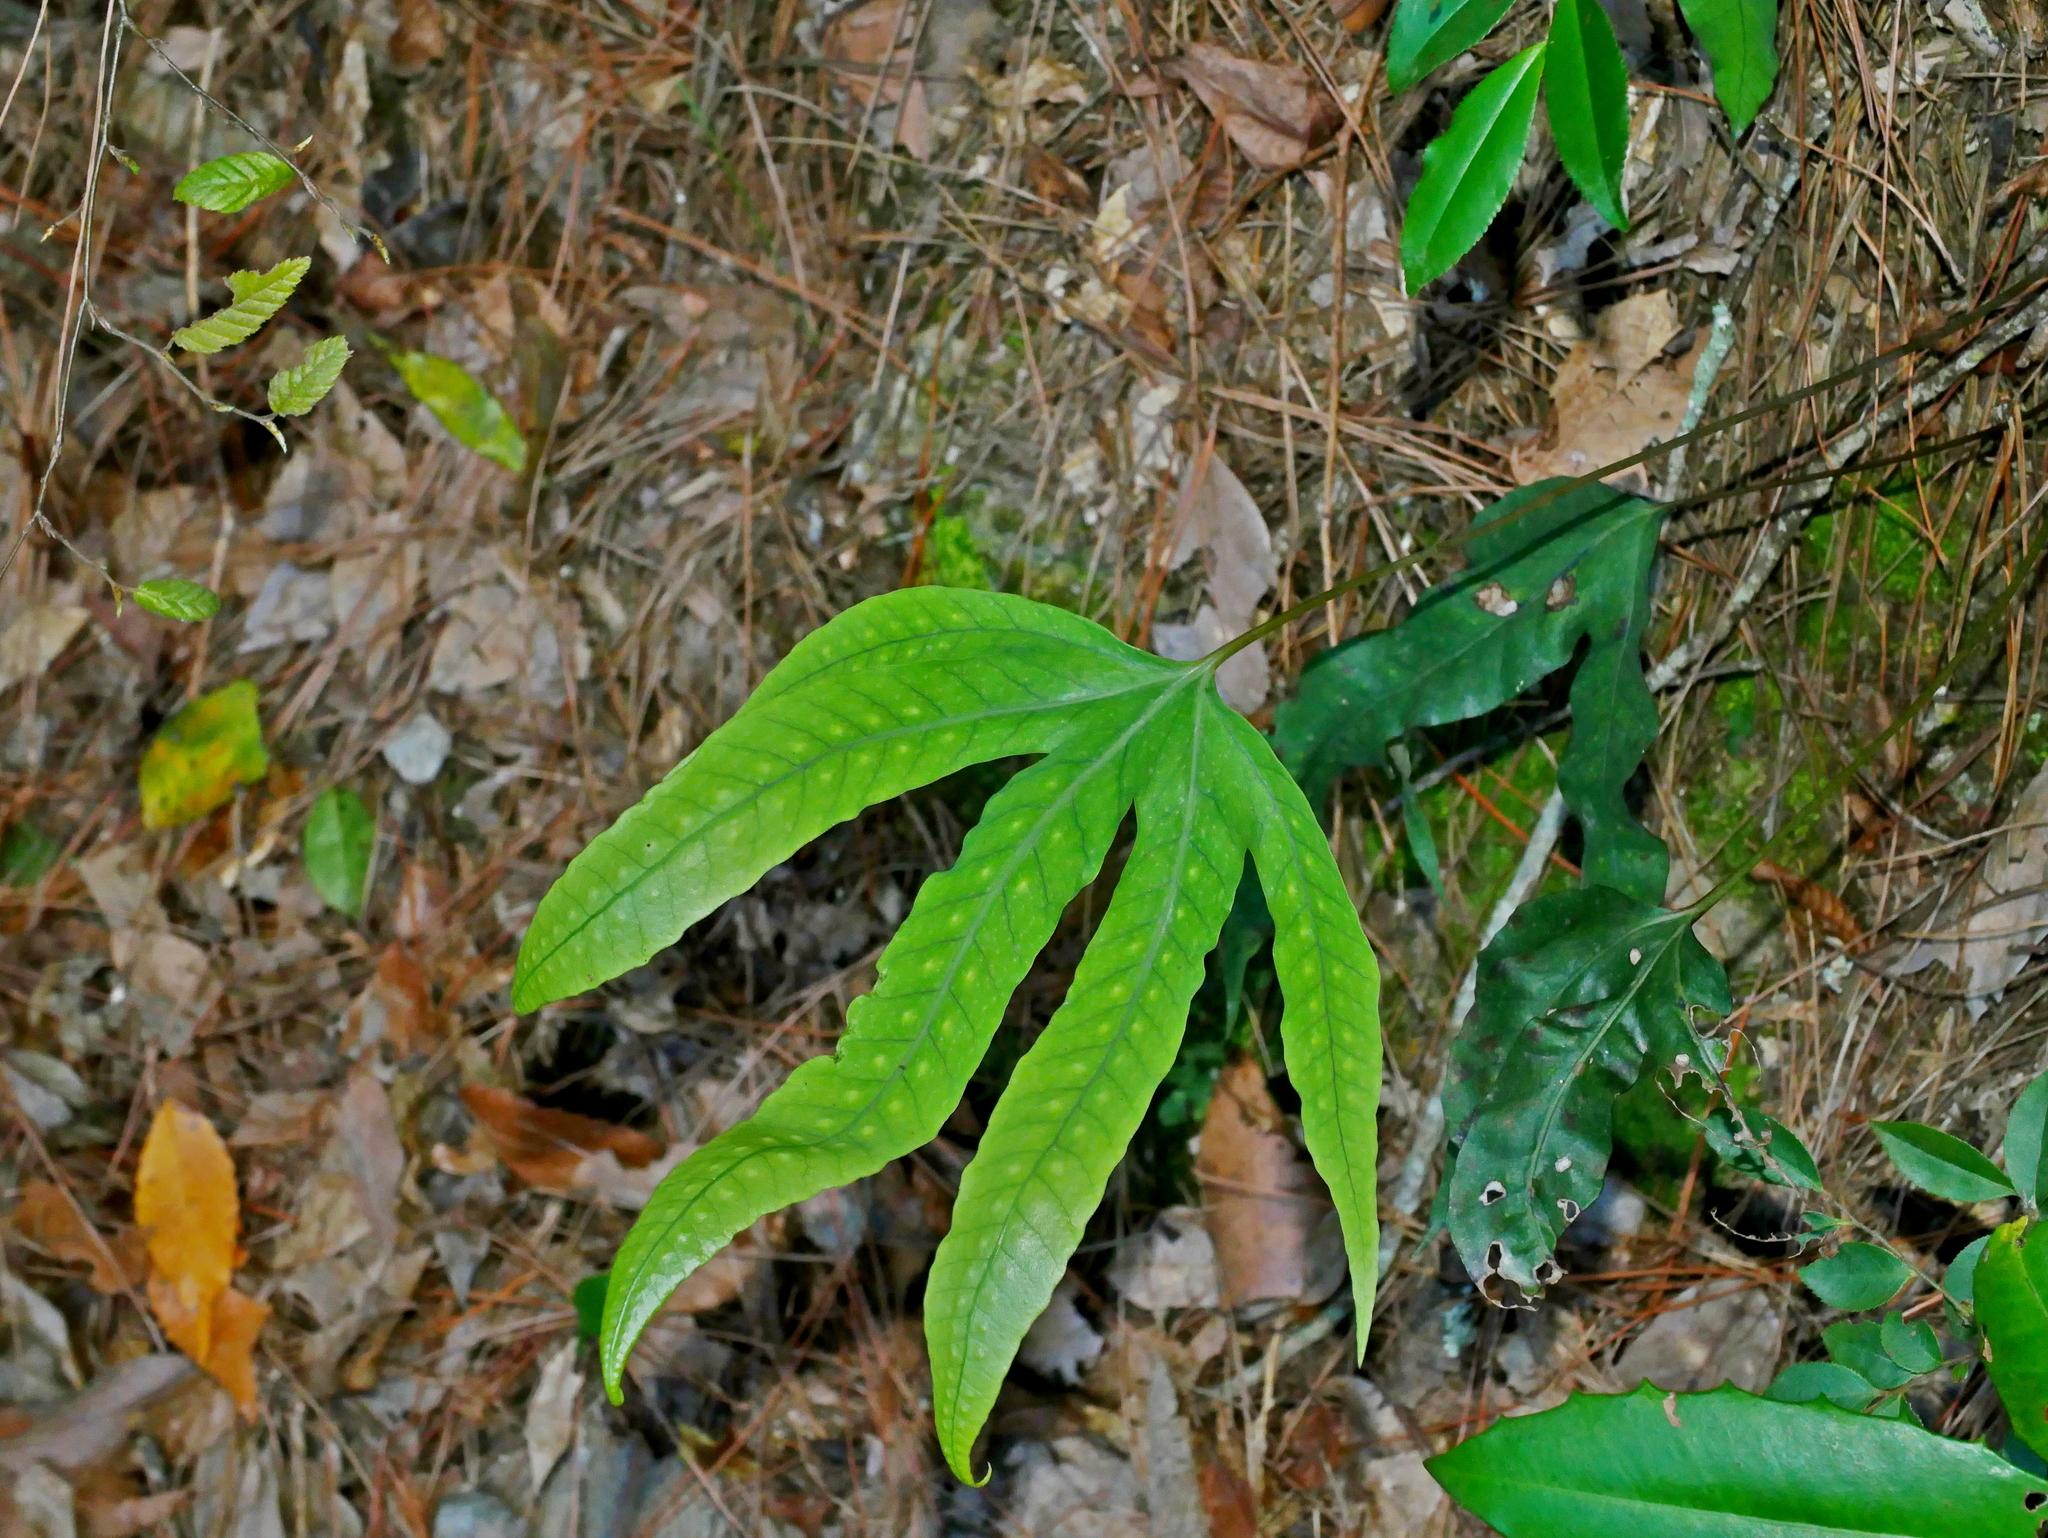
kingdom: Plantae
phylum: Tracheophyta
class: Polypodiopsida
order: Polypodiales
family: Polypodiaceae
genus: Selliguea
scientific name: Selliguea hastata
